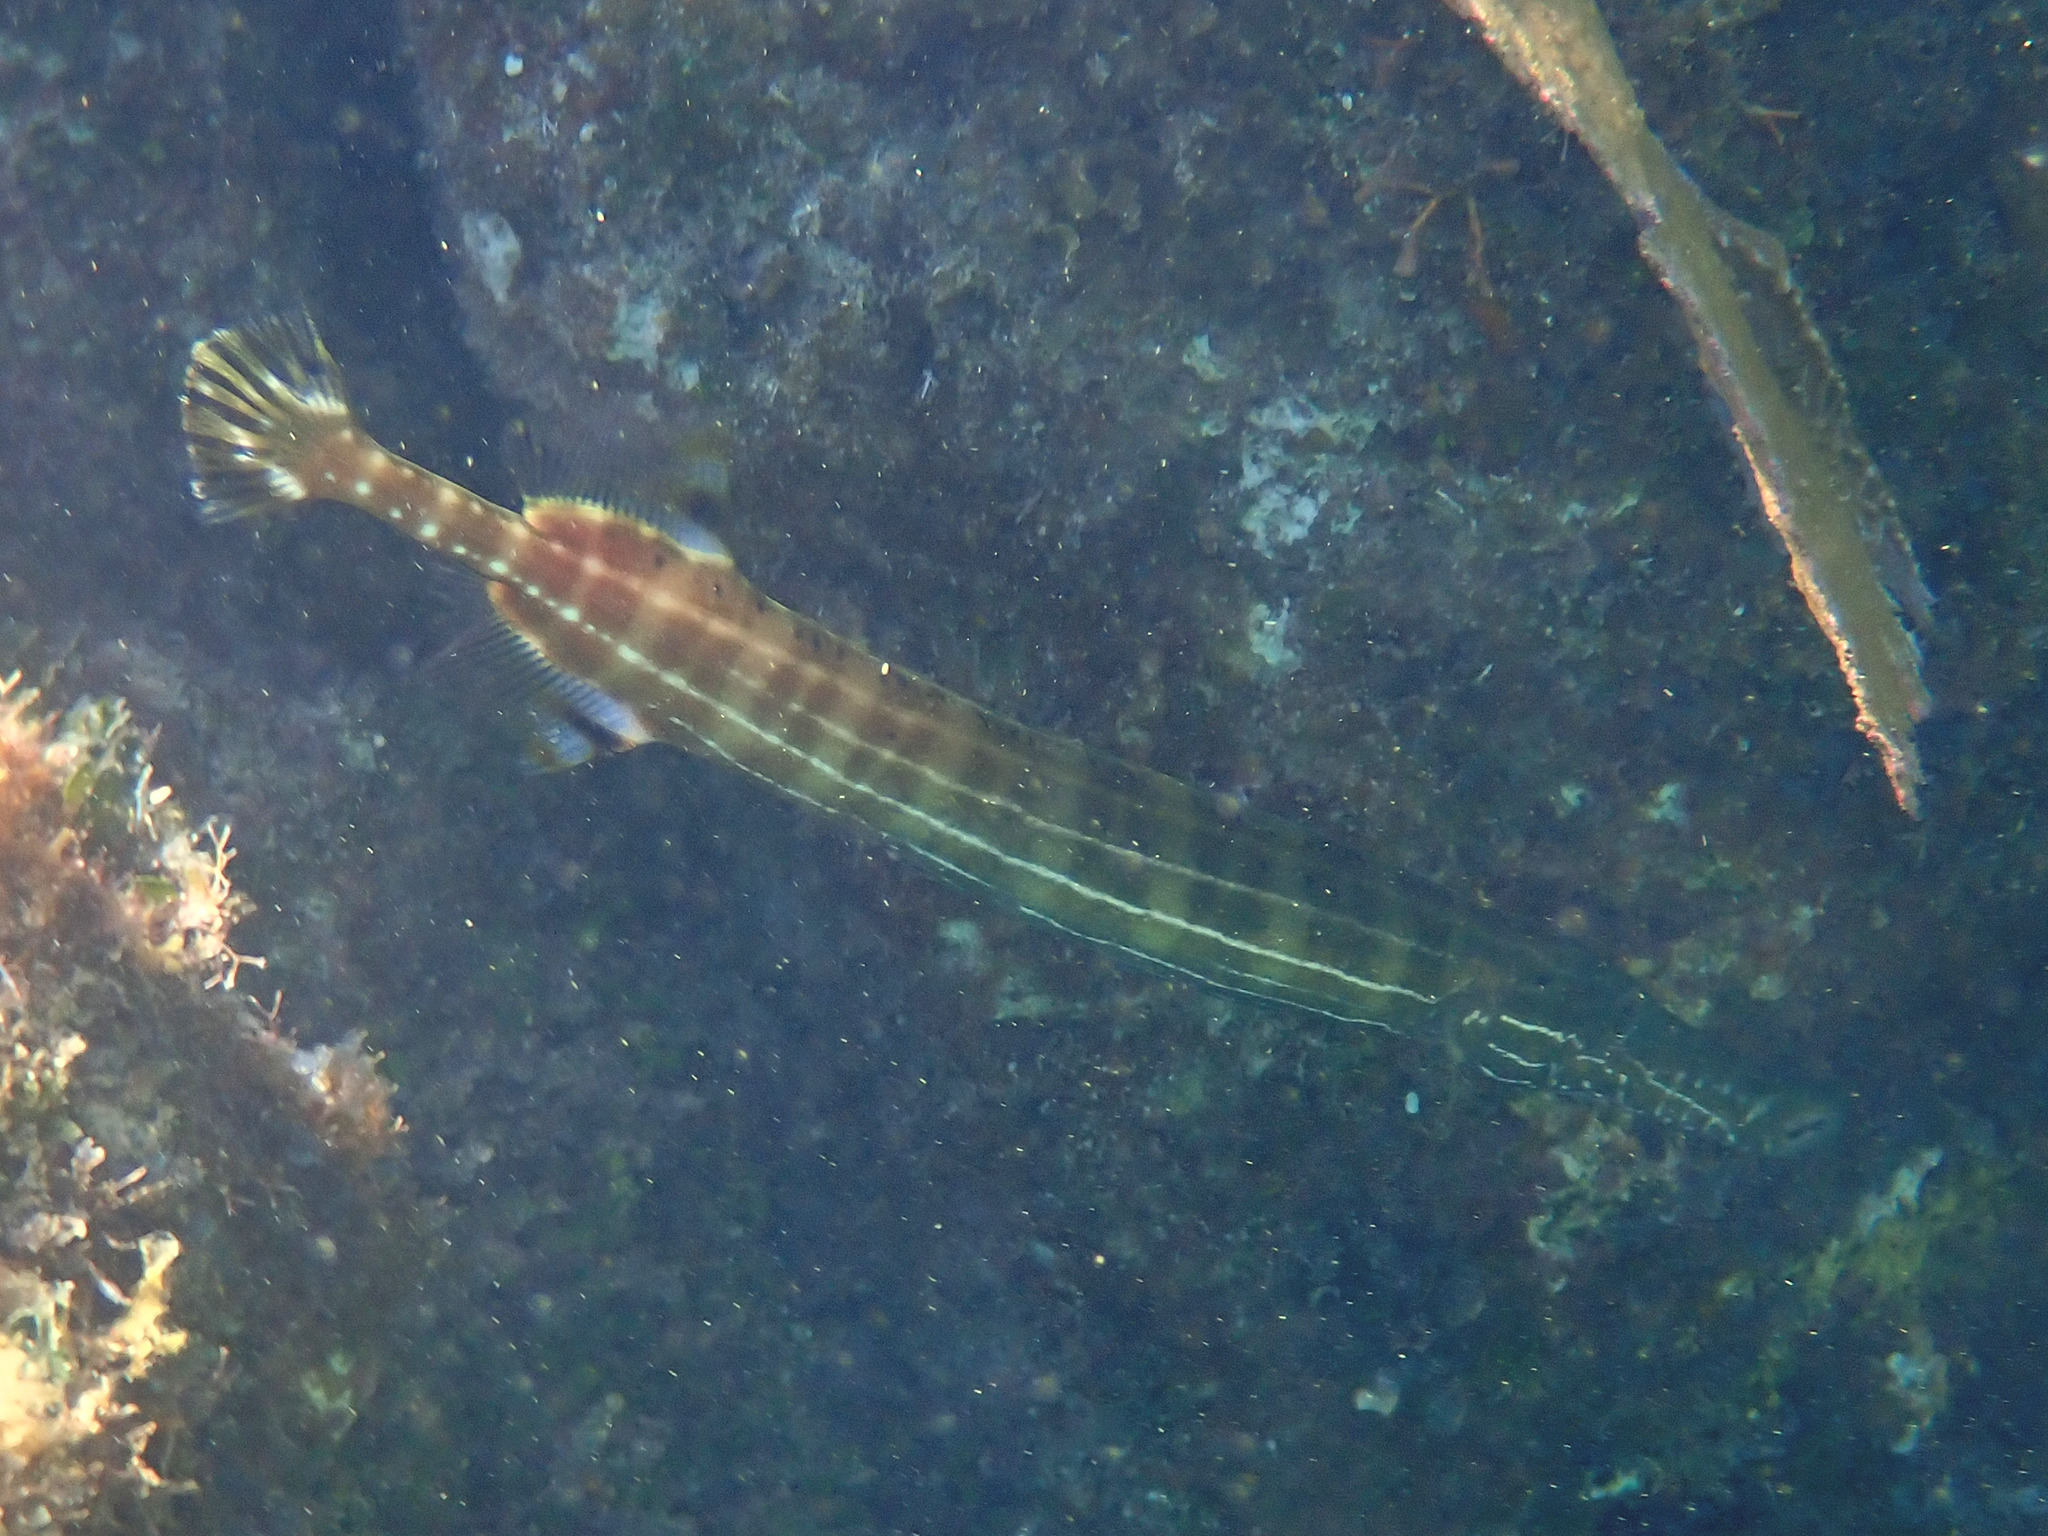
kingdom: Animalia
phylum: Chordata
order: Syngnathiformes
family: Aulostomidae
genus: Aulostomus
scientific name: Aulostomus maculatus
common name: West atlantic trumpetfish
